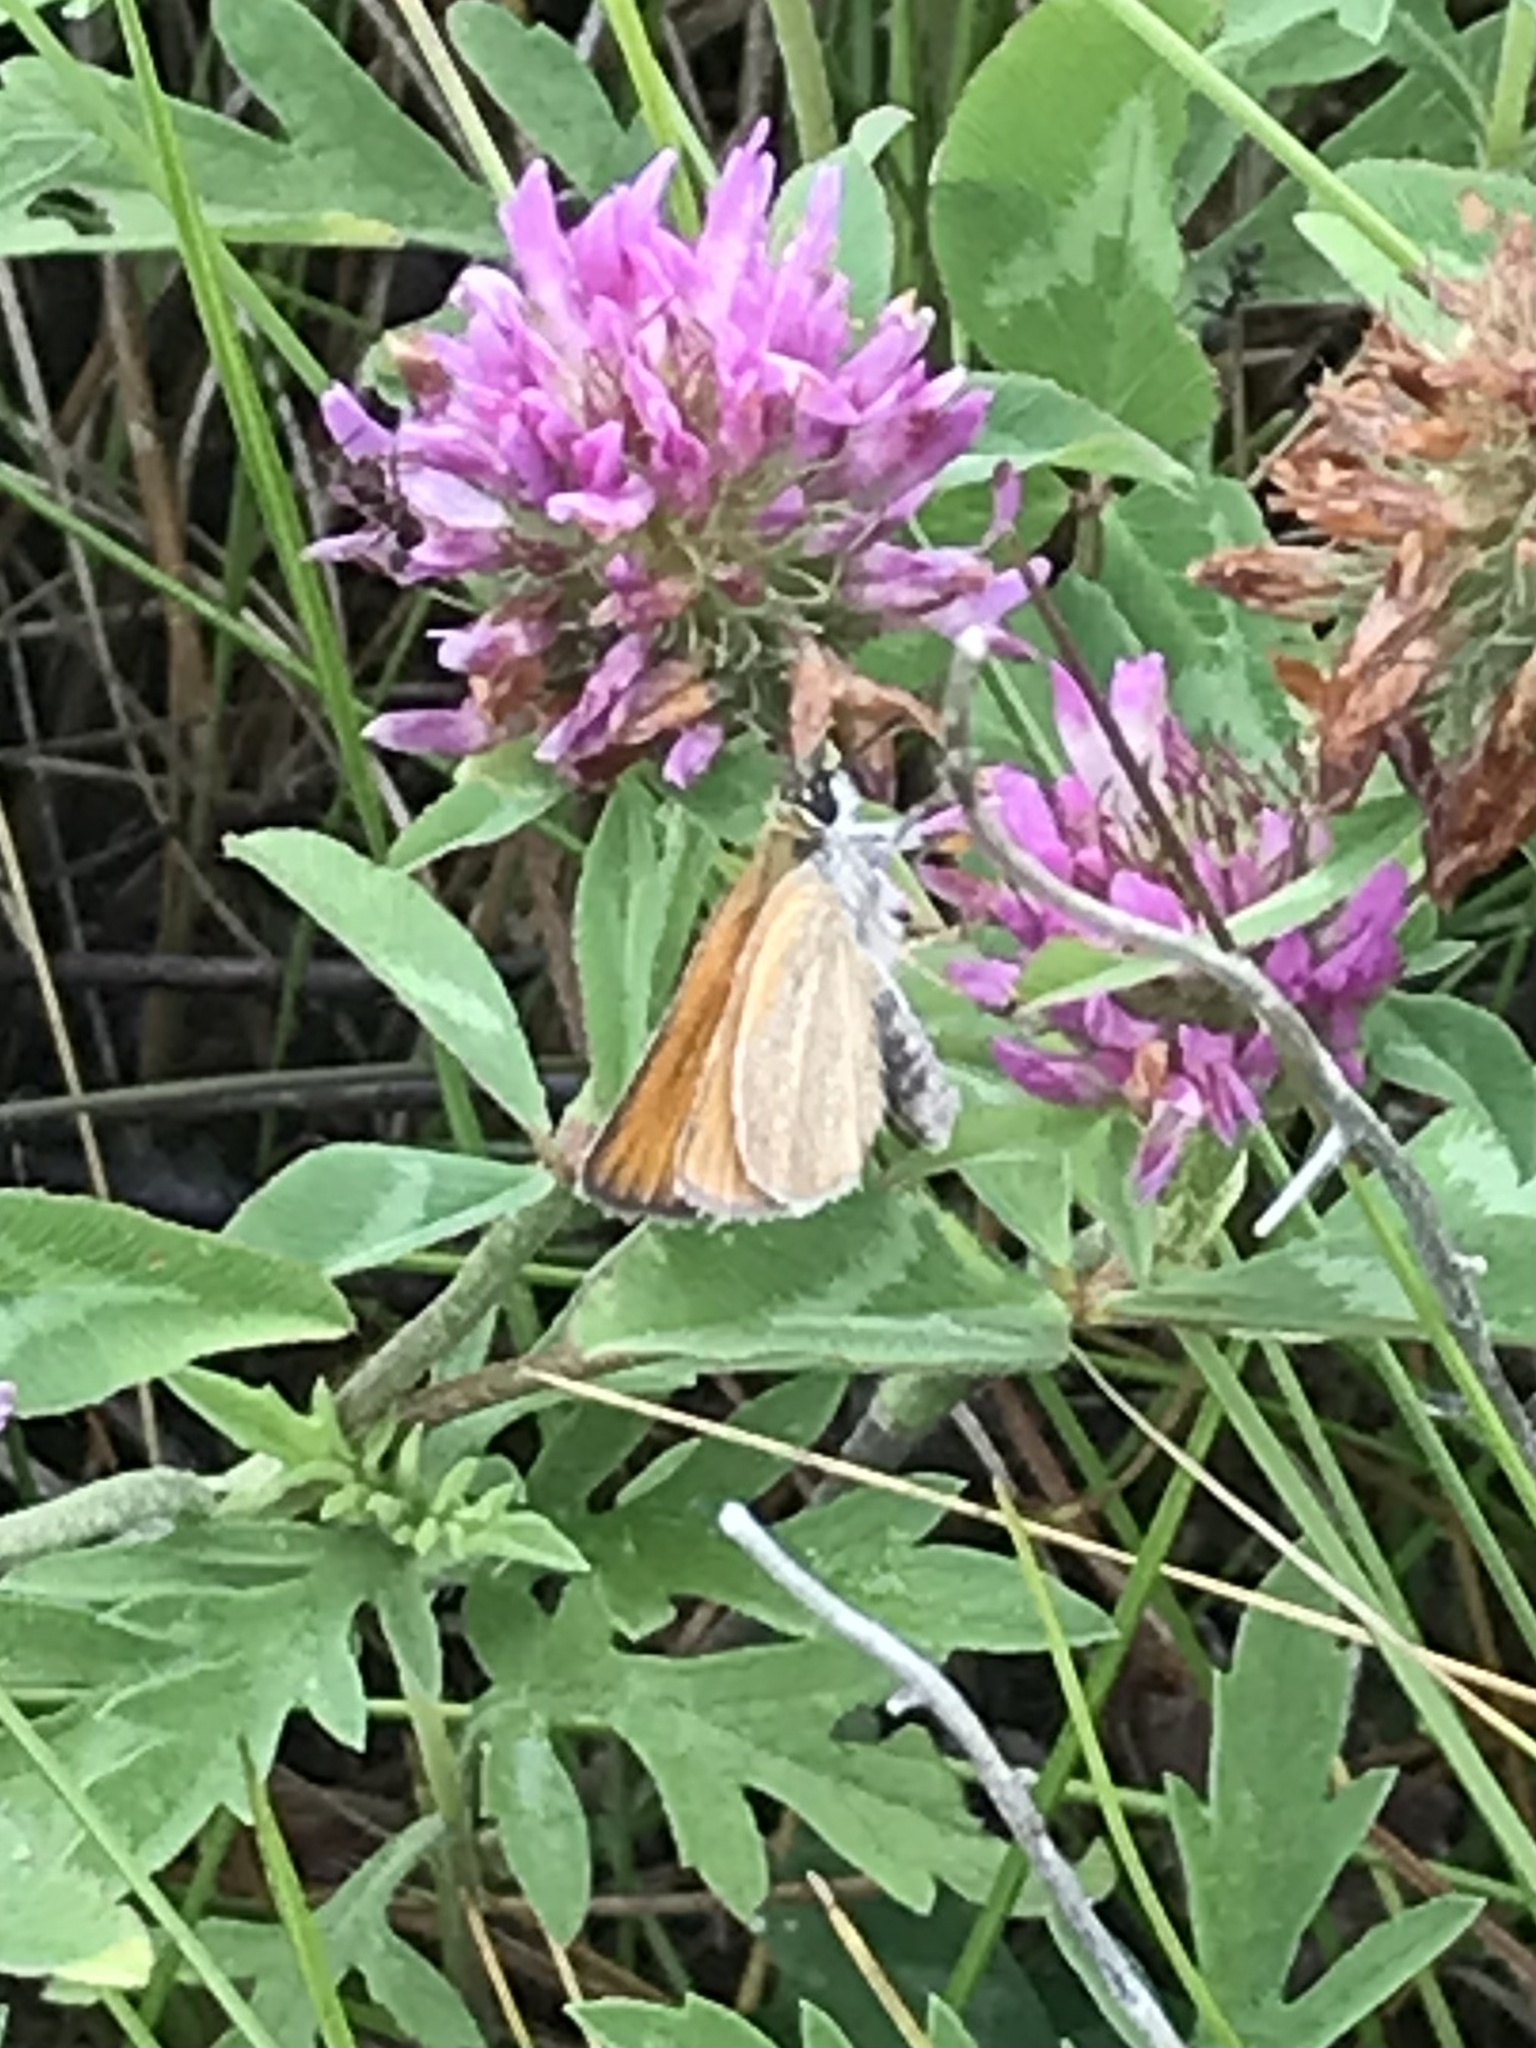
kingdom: Animalia
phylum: Arthropoda
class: Insecta
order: Lepidoptera
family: Hesperiidae
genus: Thymelicus
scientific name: Thymelicus lineola
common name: Essex skipper
